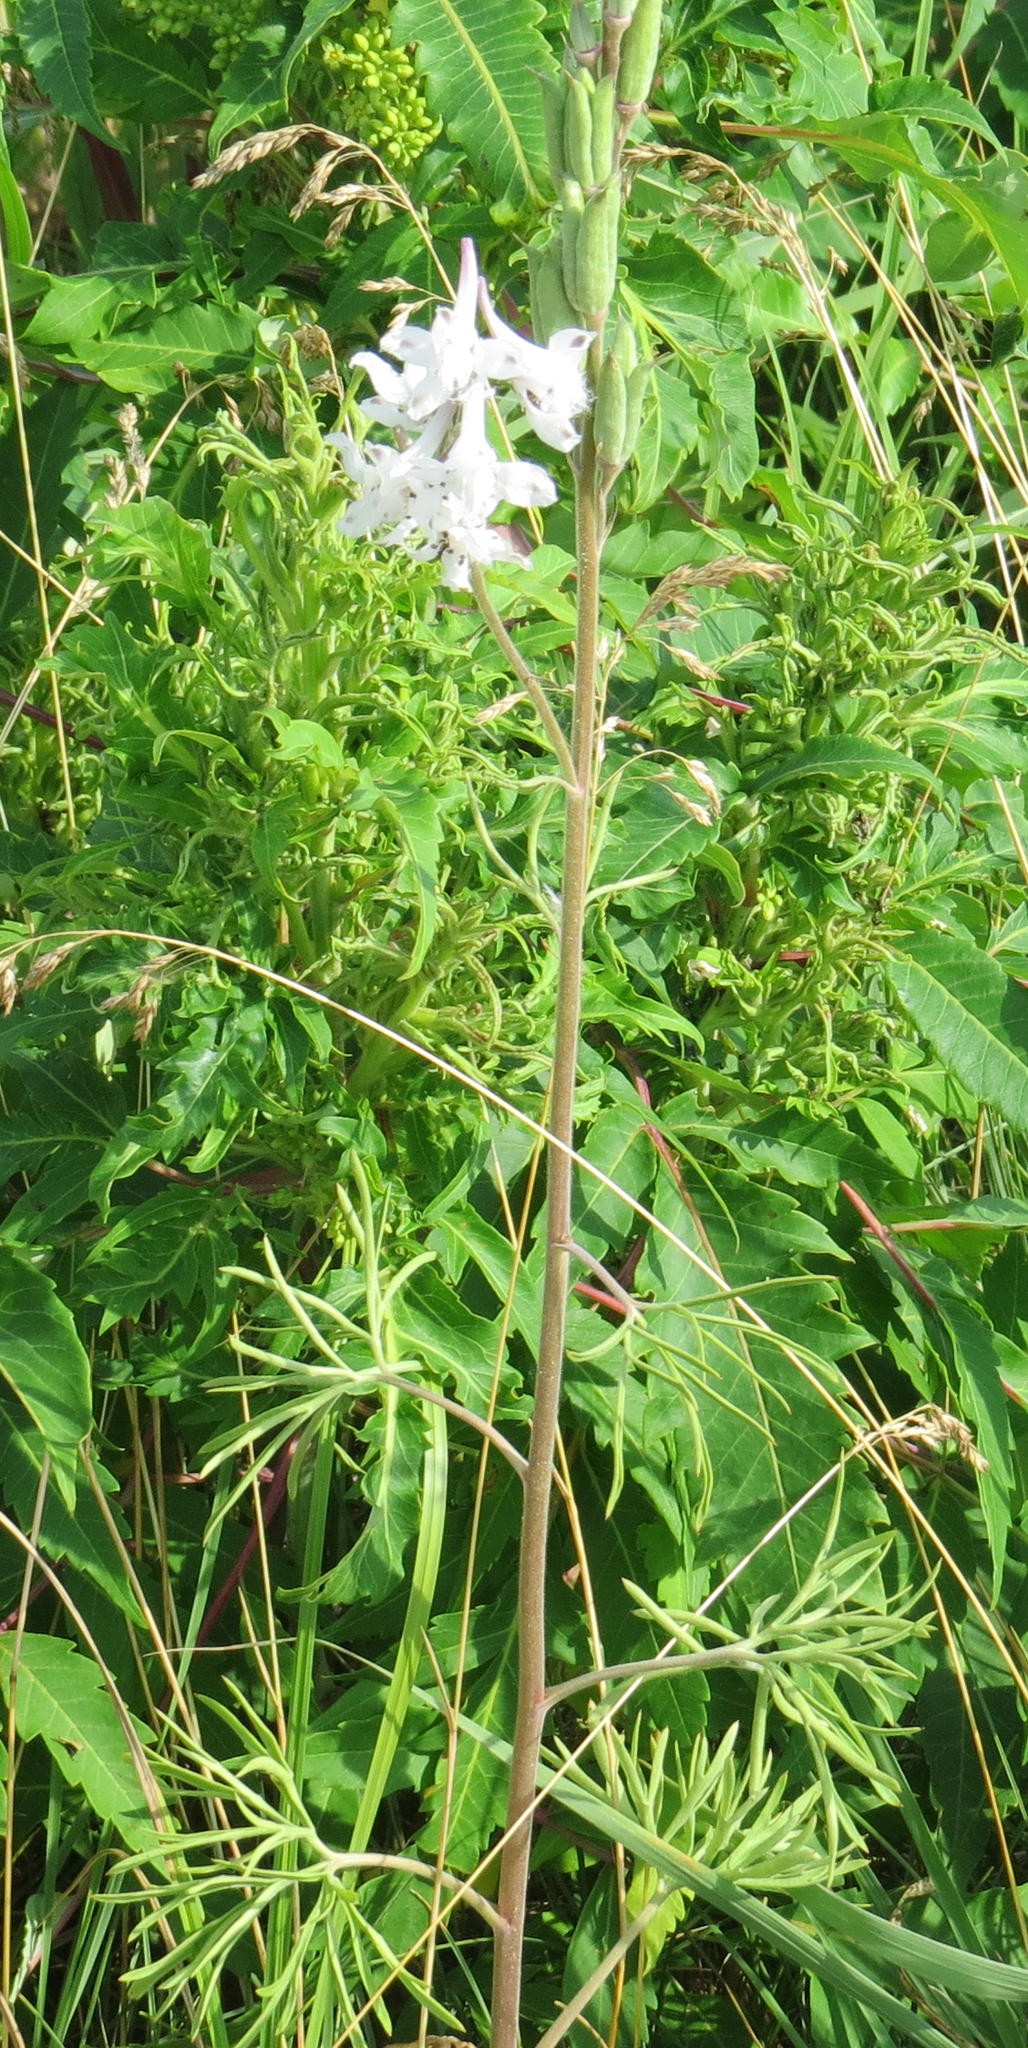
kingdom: Plantae
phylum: Tracheophyta
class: Magnoliopsida
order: Ranunculales
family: Ranunculaceae
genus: Delphinium
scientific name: Delphinium carolinianum
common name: Carolina larkspur
